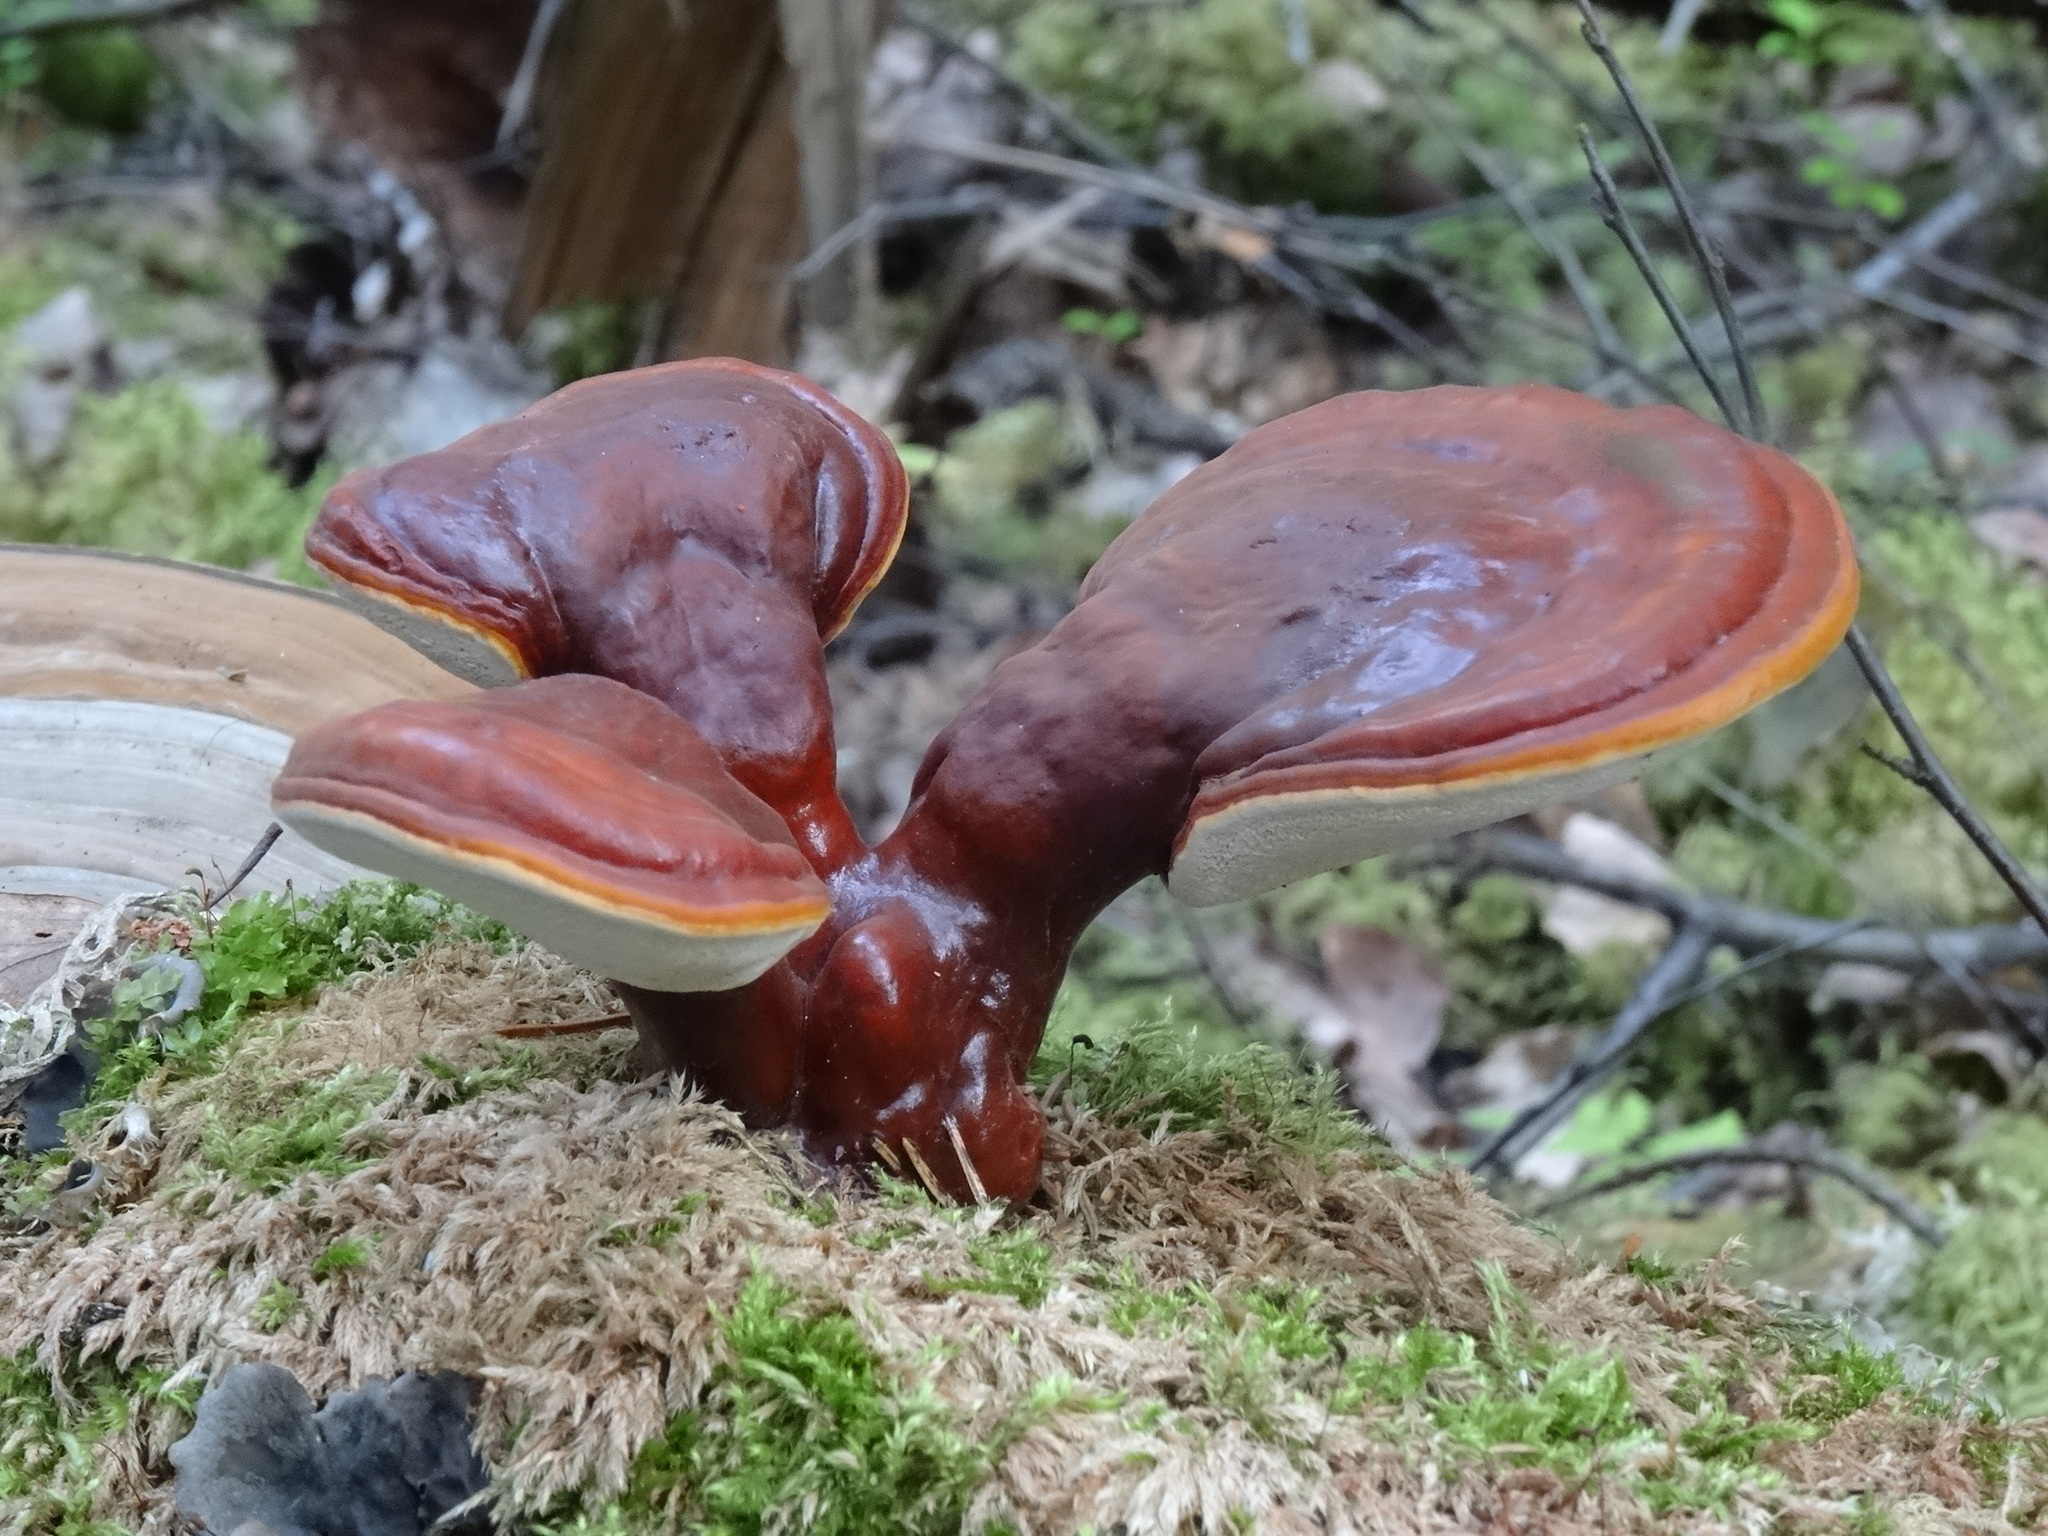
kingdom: Fungi
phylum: Basidiomycota
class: Agaricomycetes
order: Polyporales
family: Polyporaceae
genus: Ganoderma
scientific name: Ganoderma lucidum
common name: Lacquered bracket
